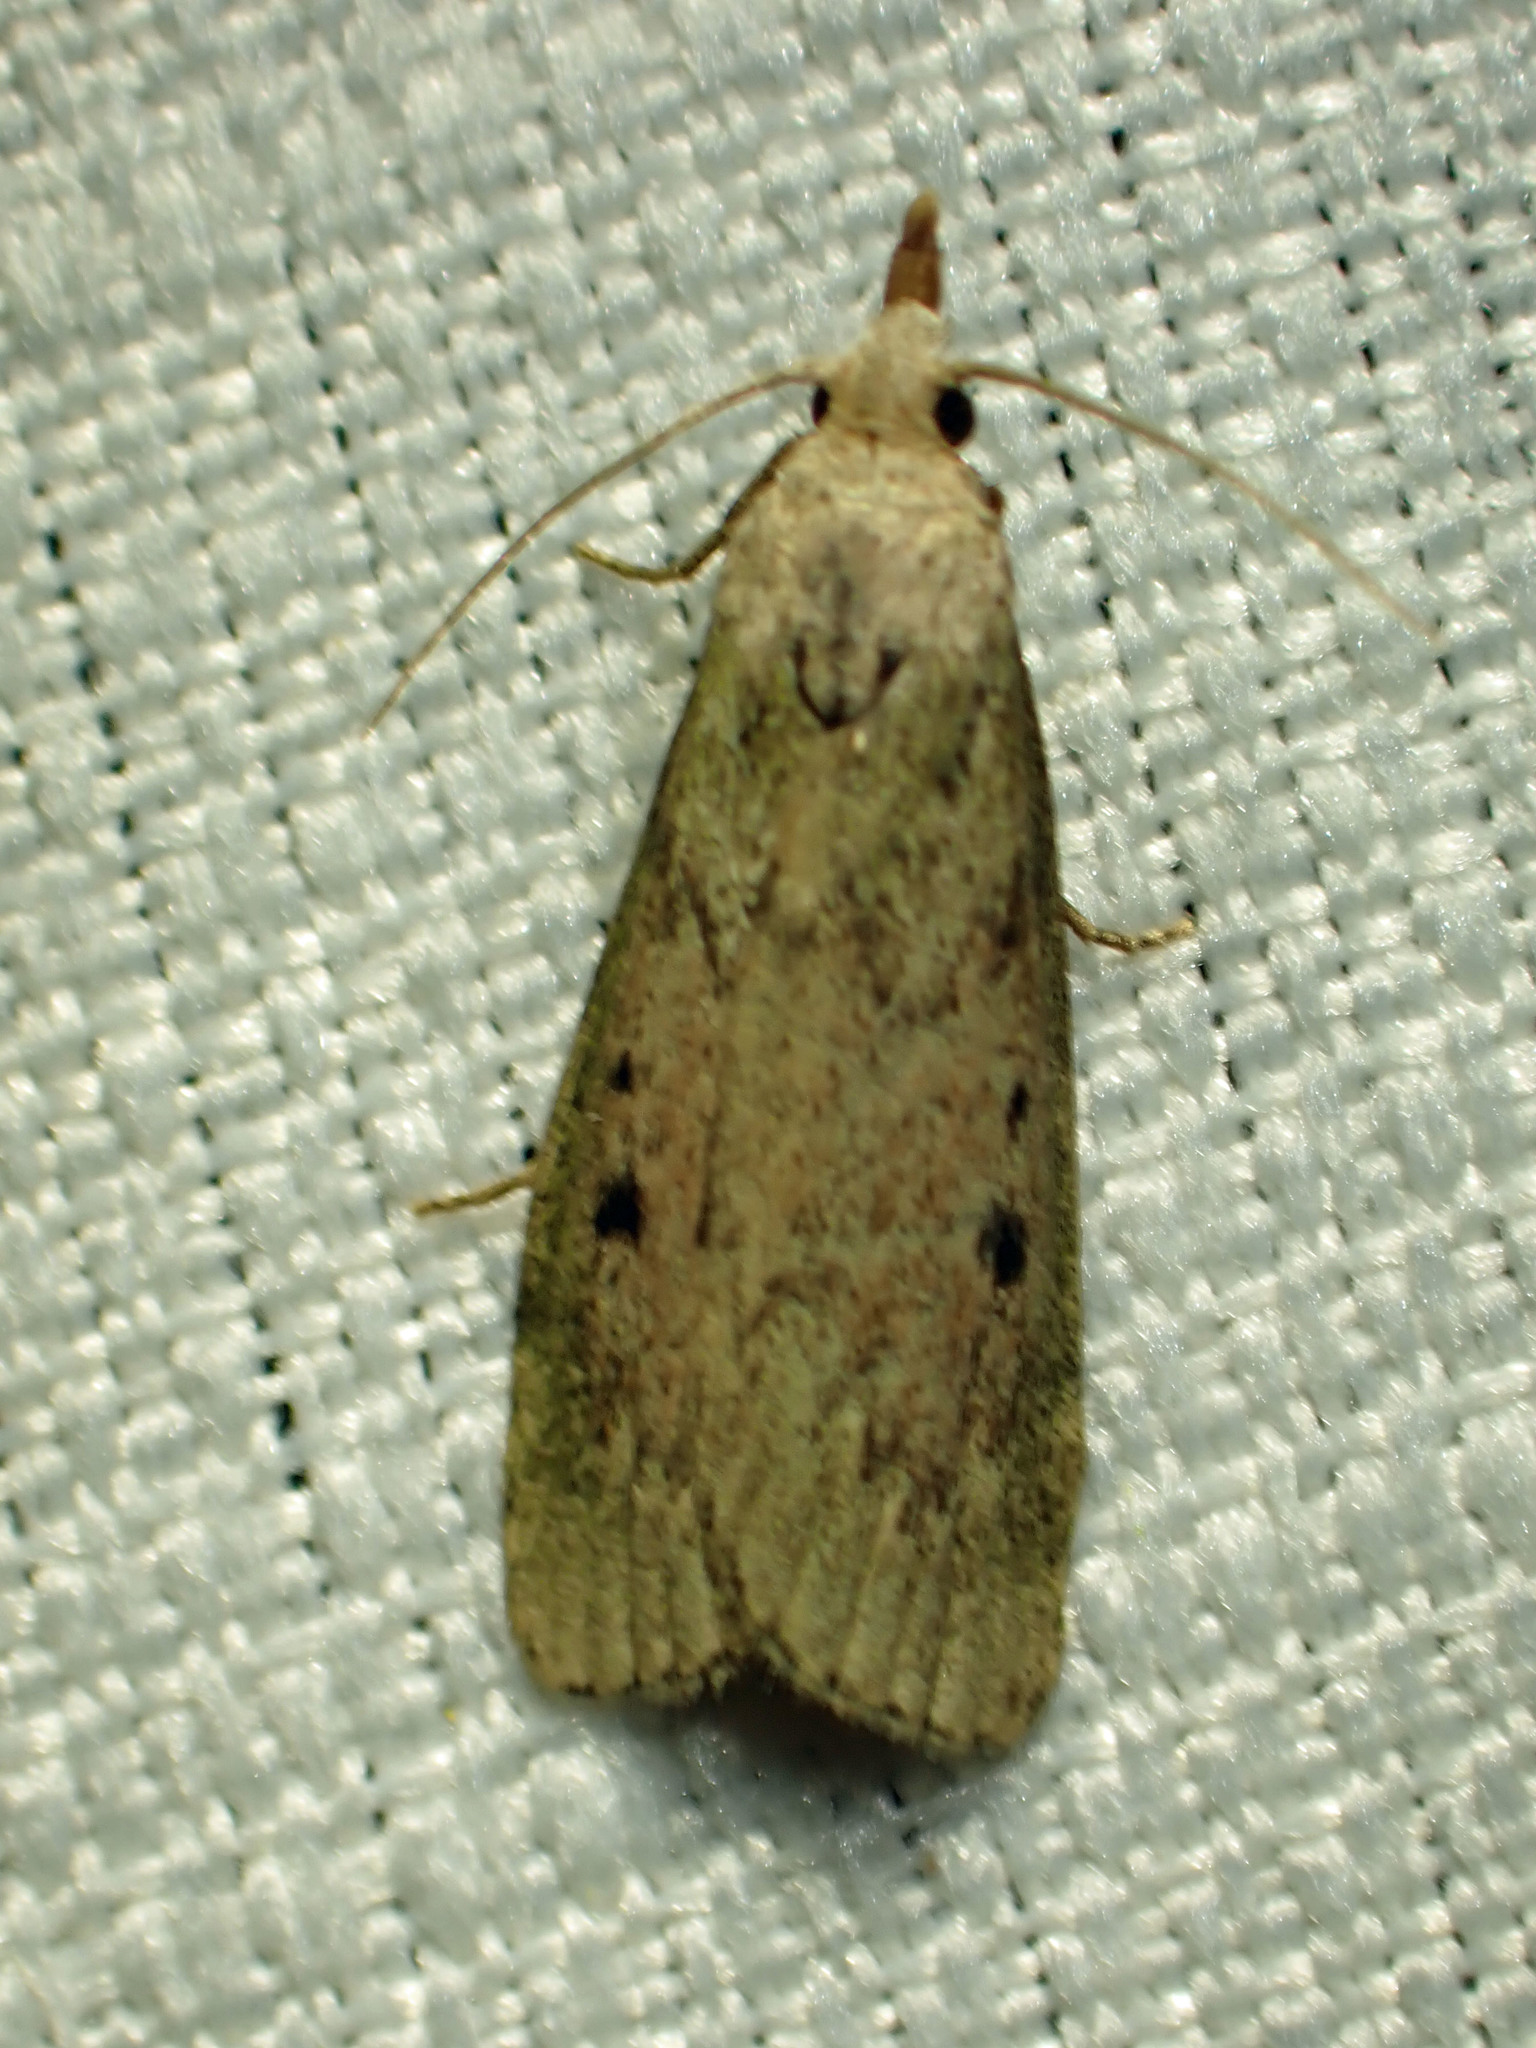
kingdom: Animalia
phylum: Arthropoda
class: Insecta
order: Lepidoptera
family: Pyralidae
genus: Aphomia
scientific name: Aphomia sociella
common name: Bee moth
